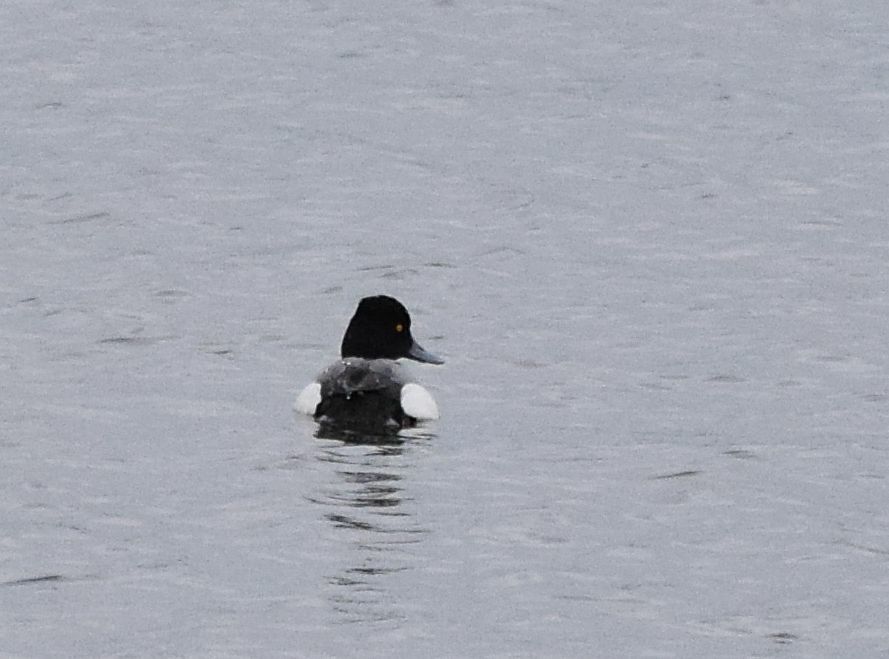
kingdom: Animalia
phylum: Chordata
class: Aves
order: Anseriformes
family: Anatidae
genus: Aythya
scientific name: Aythya affinis
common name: Lesser scaup
